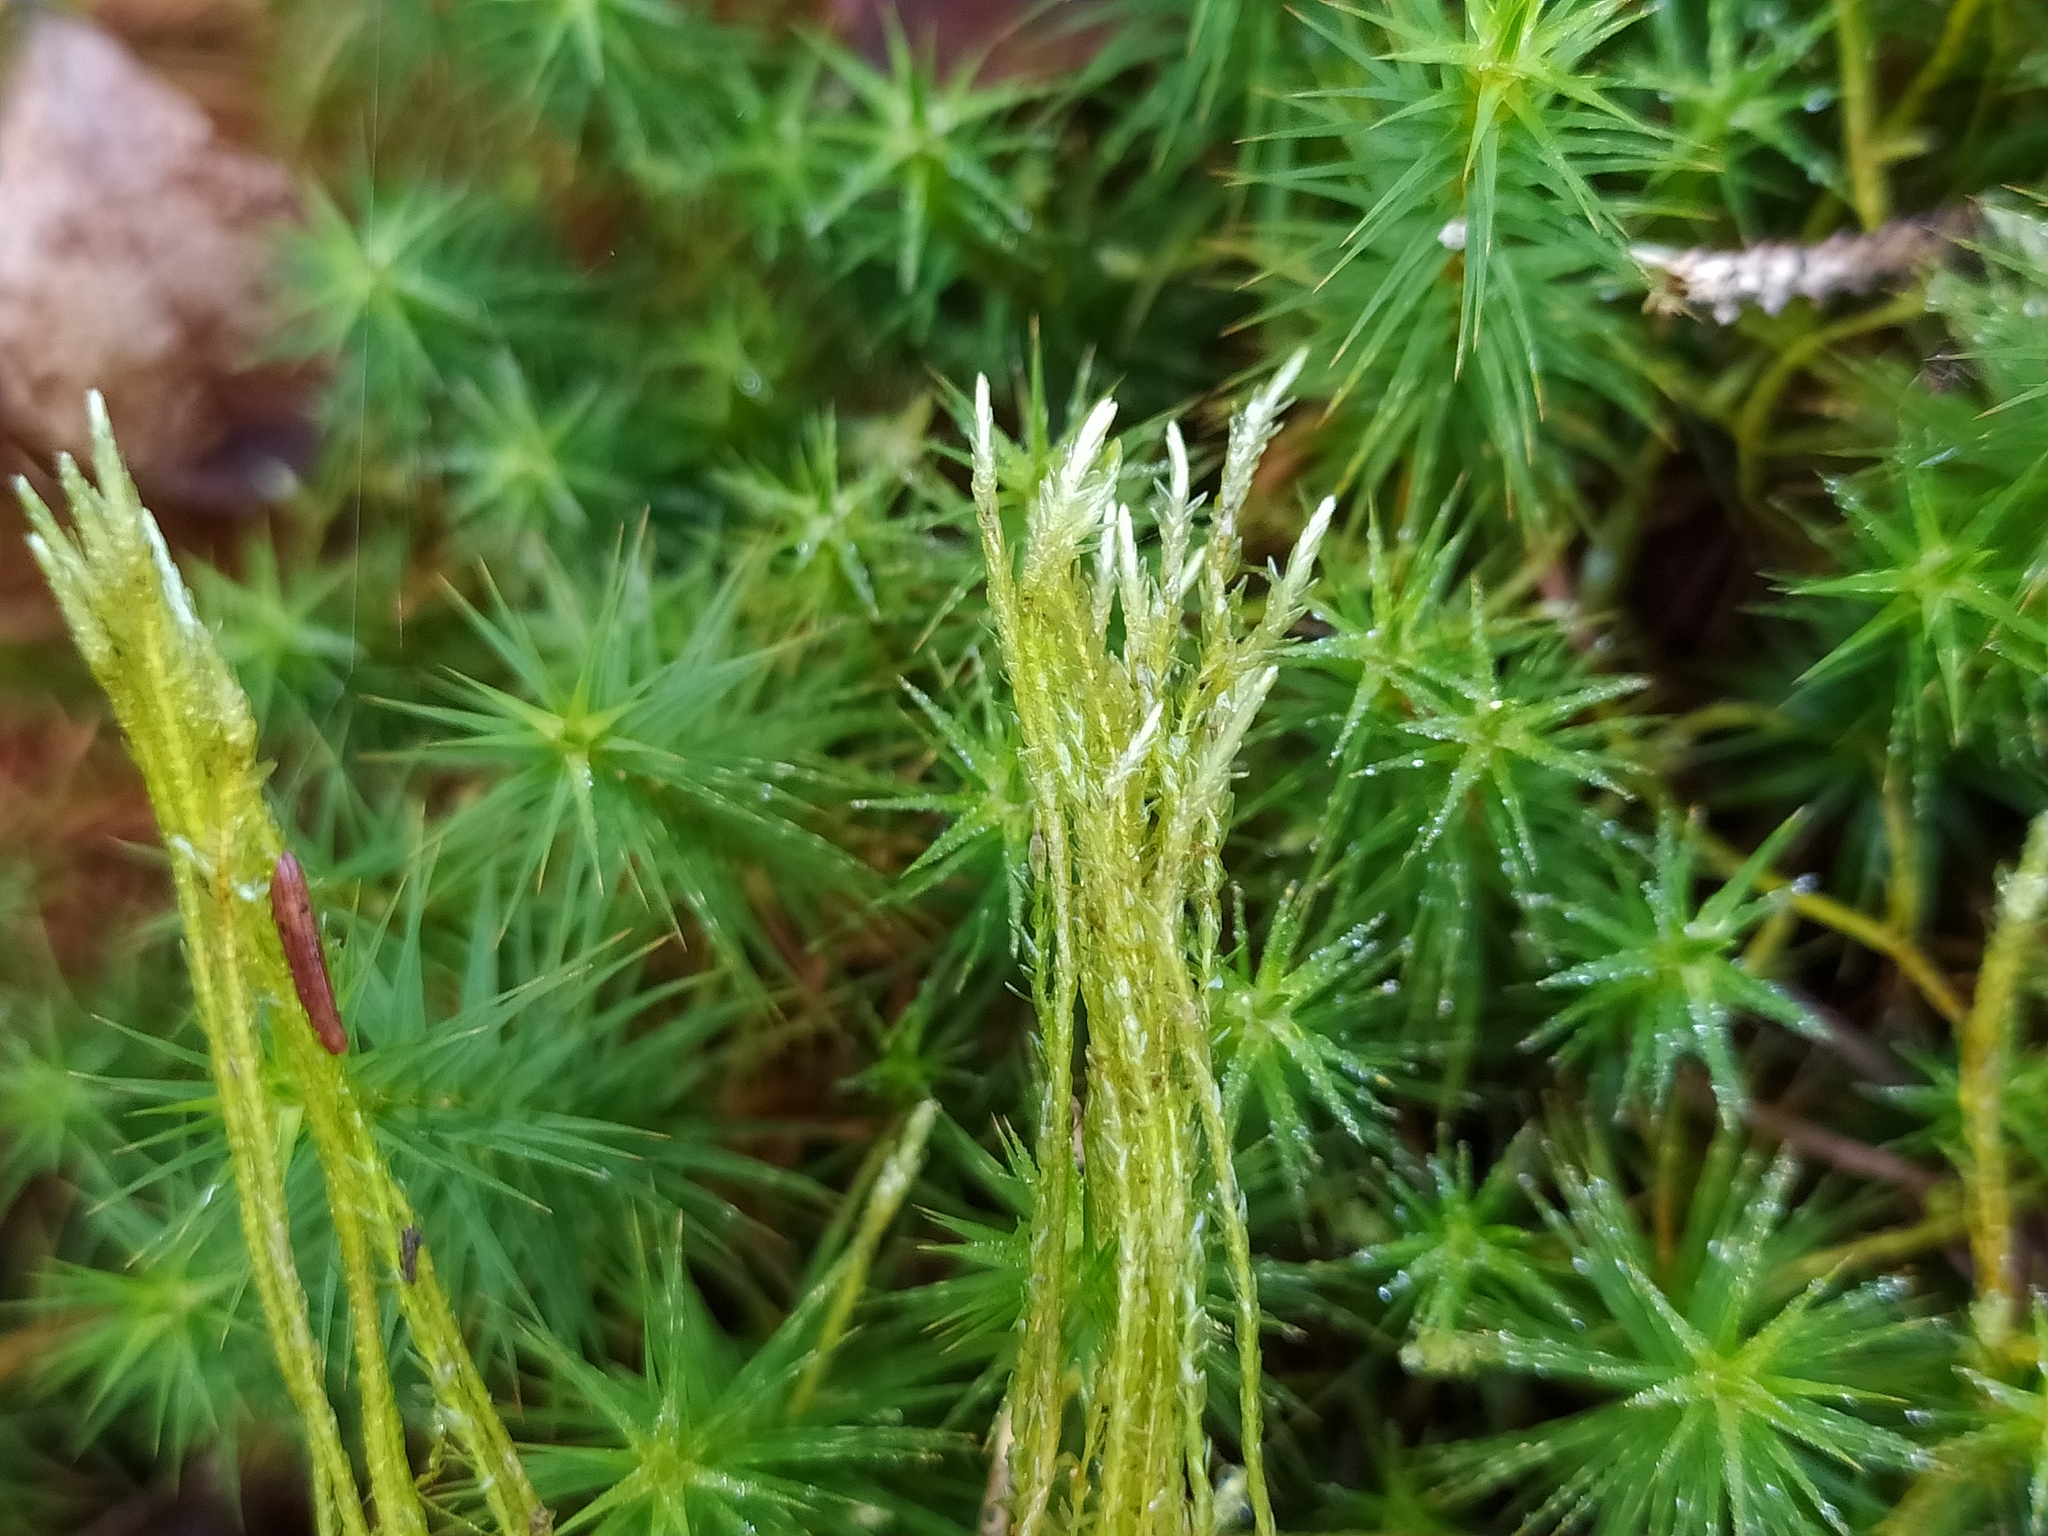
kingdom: Plantae
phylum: Bryophyta
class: Bryopsida
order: Hypnales
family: Calliergonaceae
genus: Straminergon
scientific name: Straminergon stramineum
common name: Straw moss
